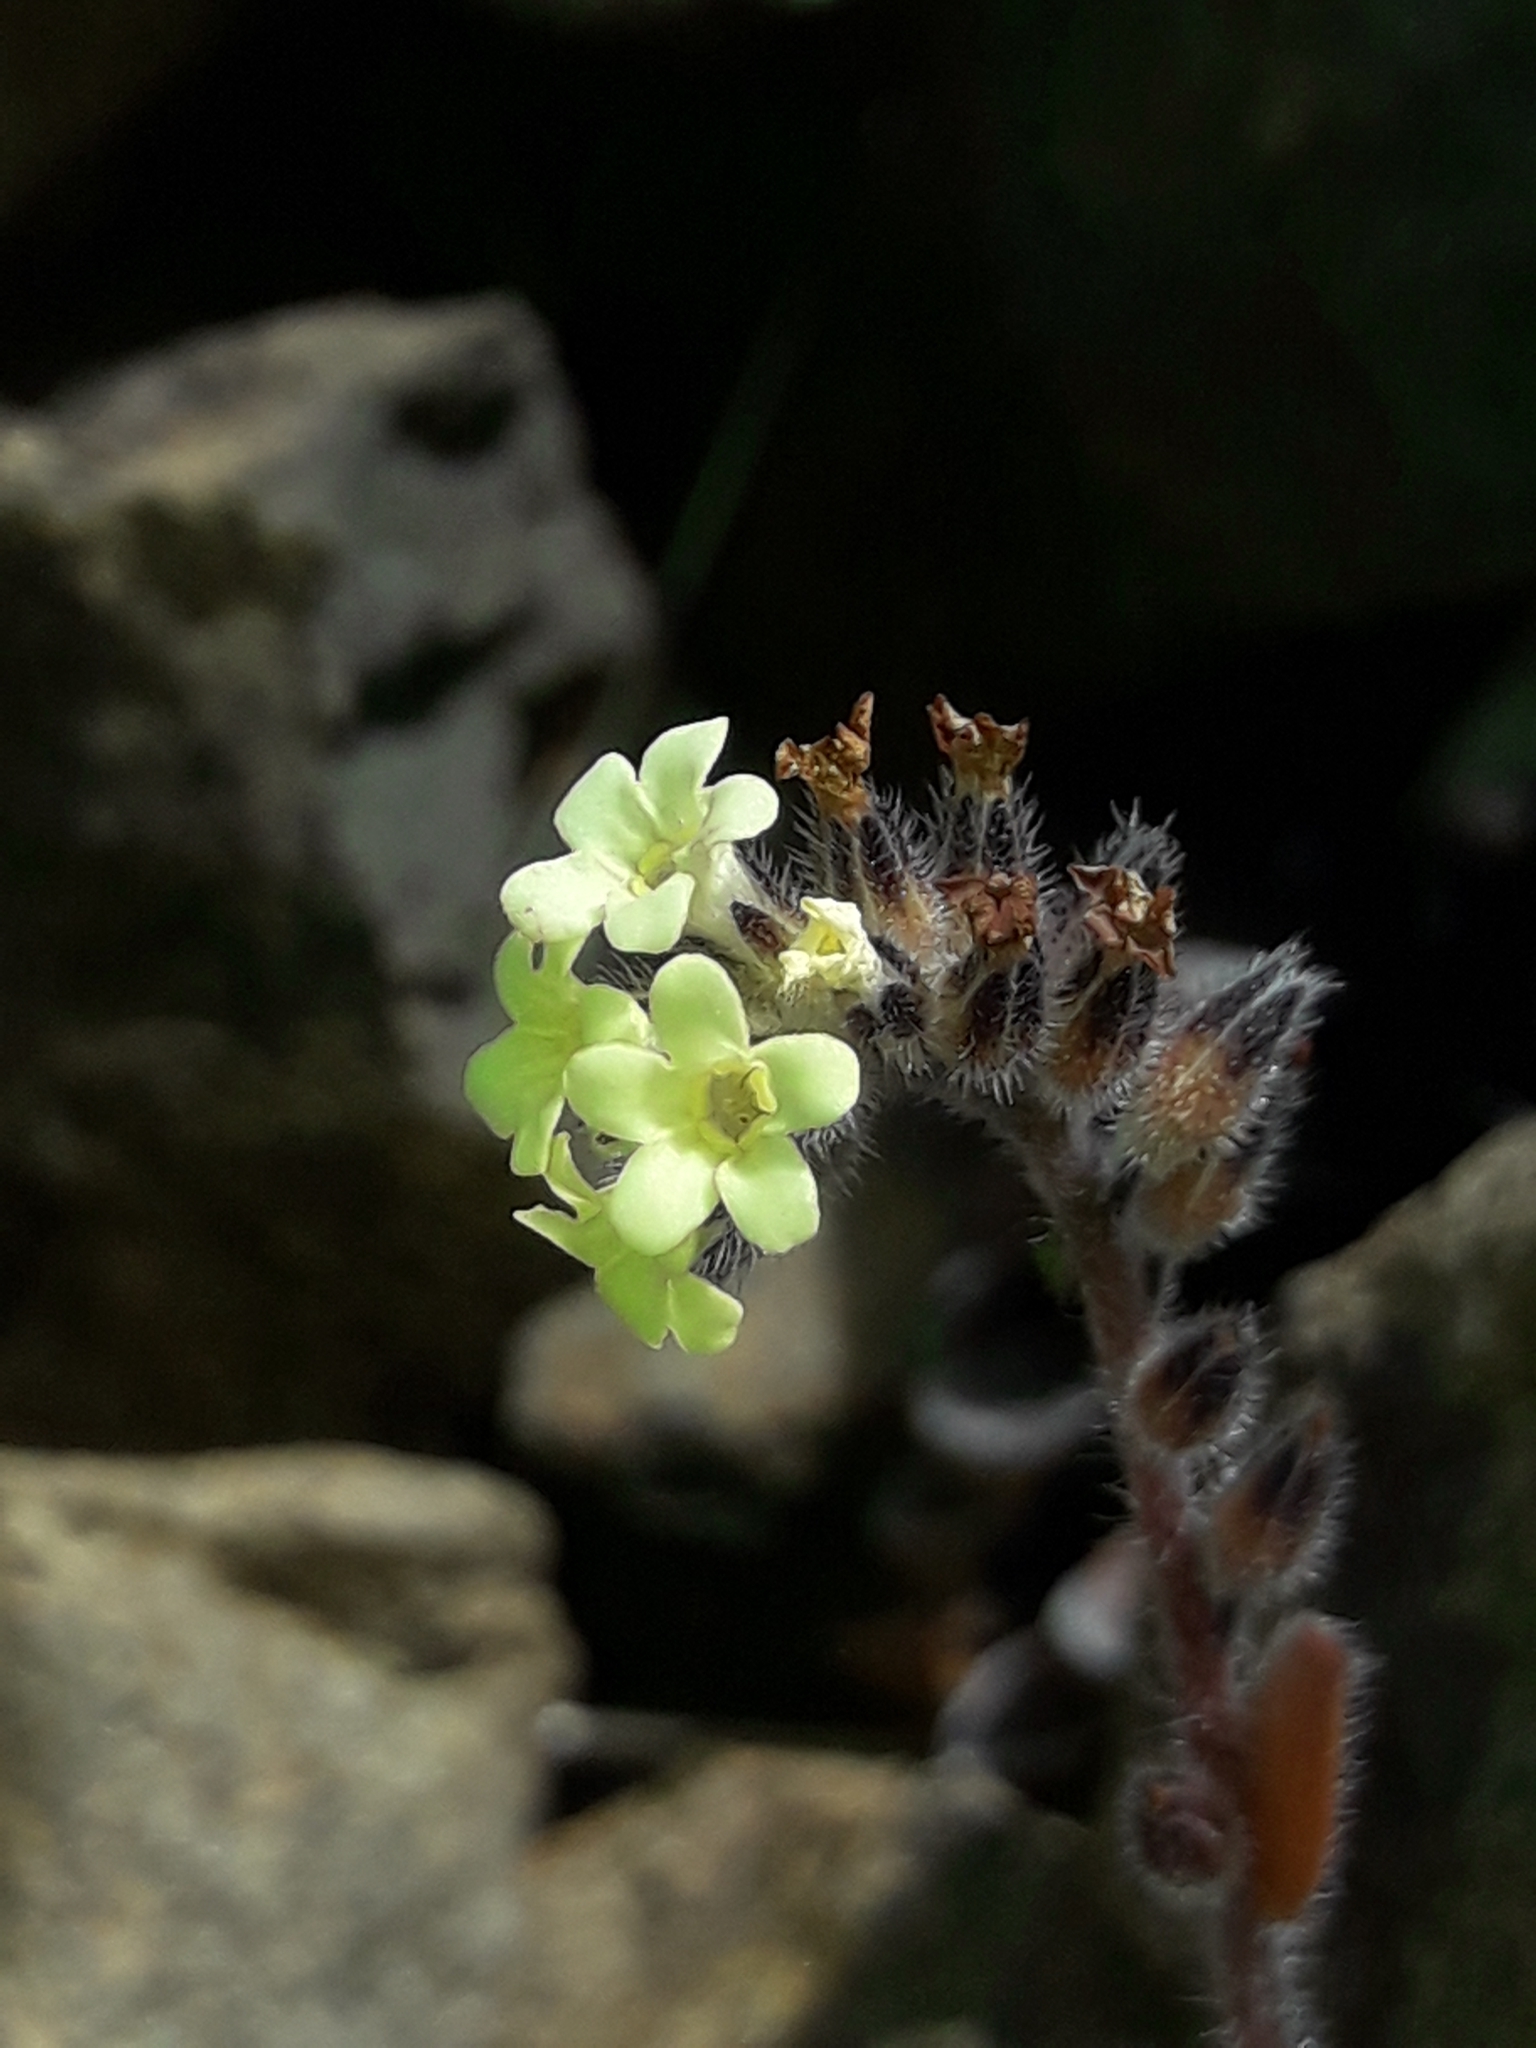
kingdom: Plantae
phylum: Tracheophyta
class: Magnoliopsida
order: Boraginales
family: Boraginaceae
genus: Myosotis
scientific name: Myosotis australis
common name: Australian forget-me-not
